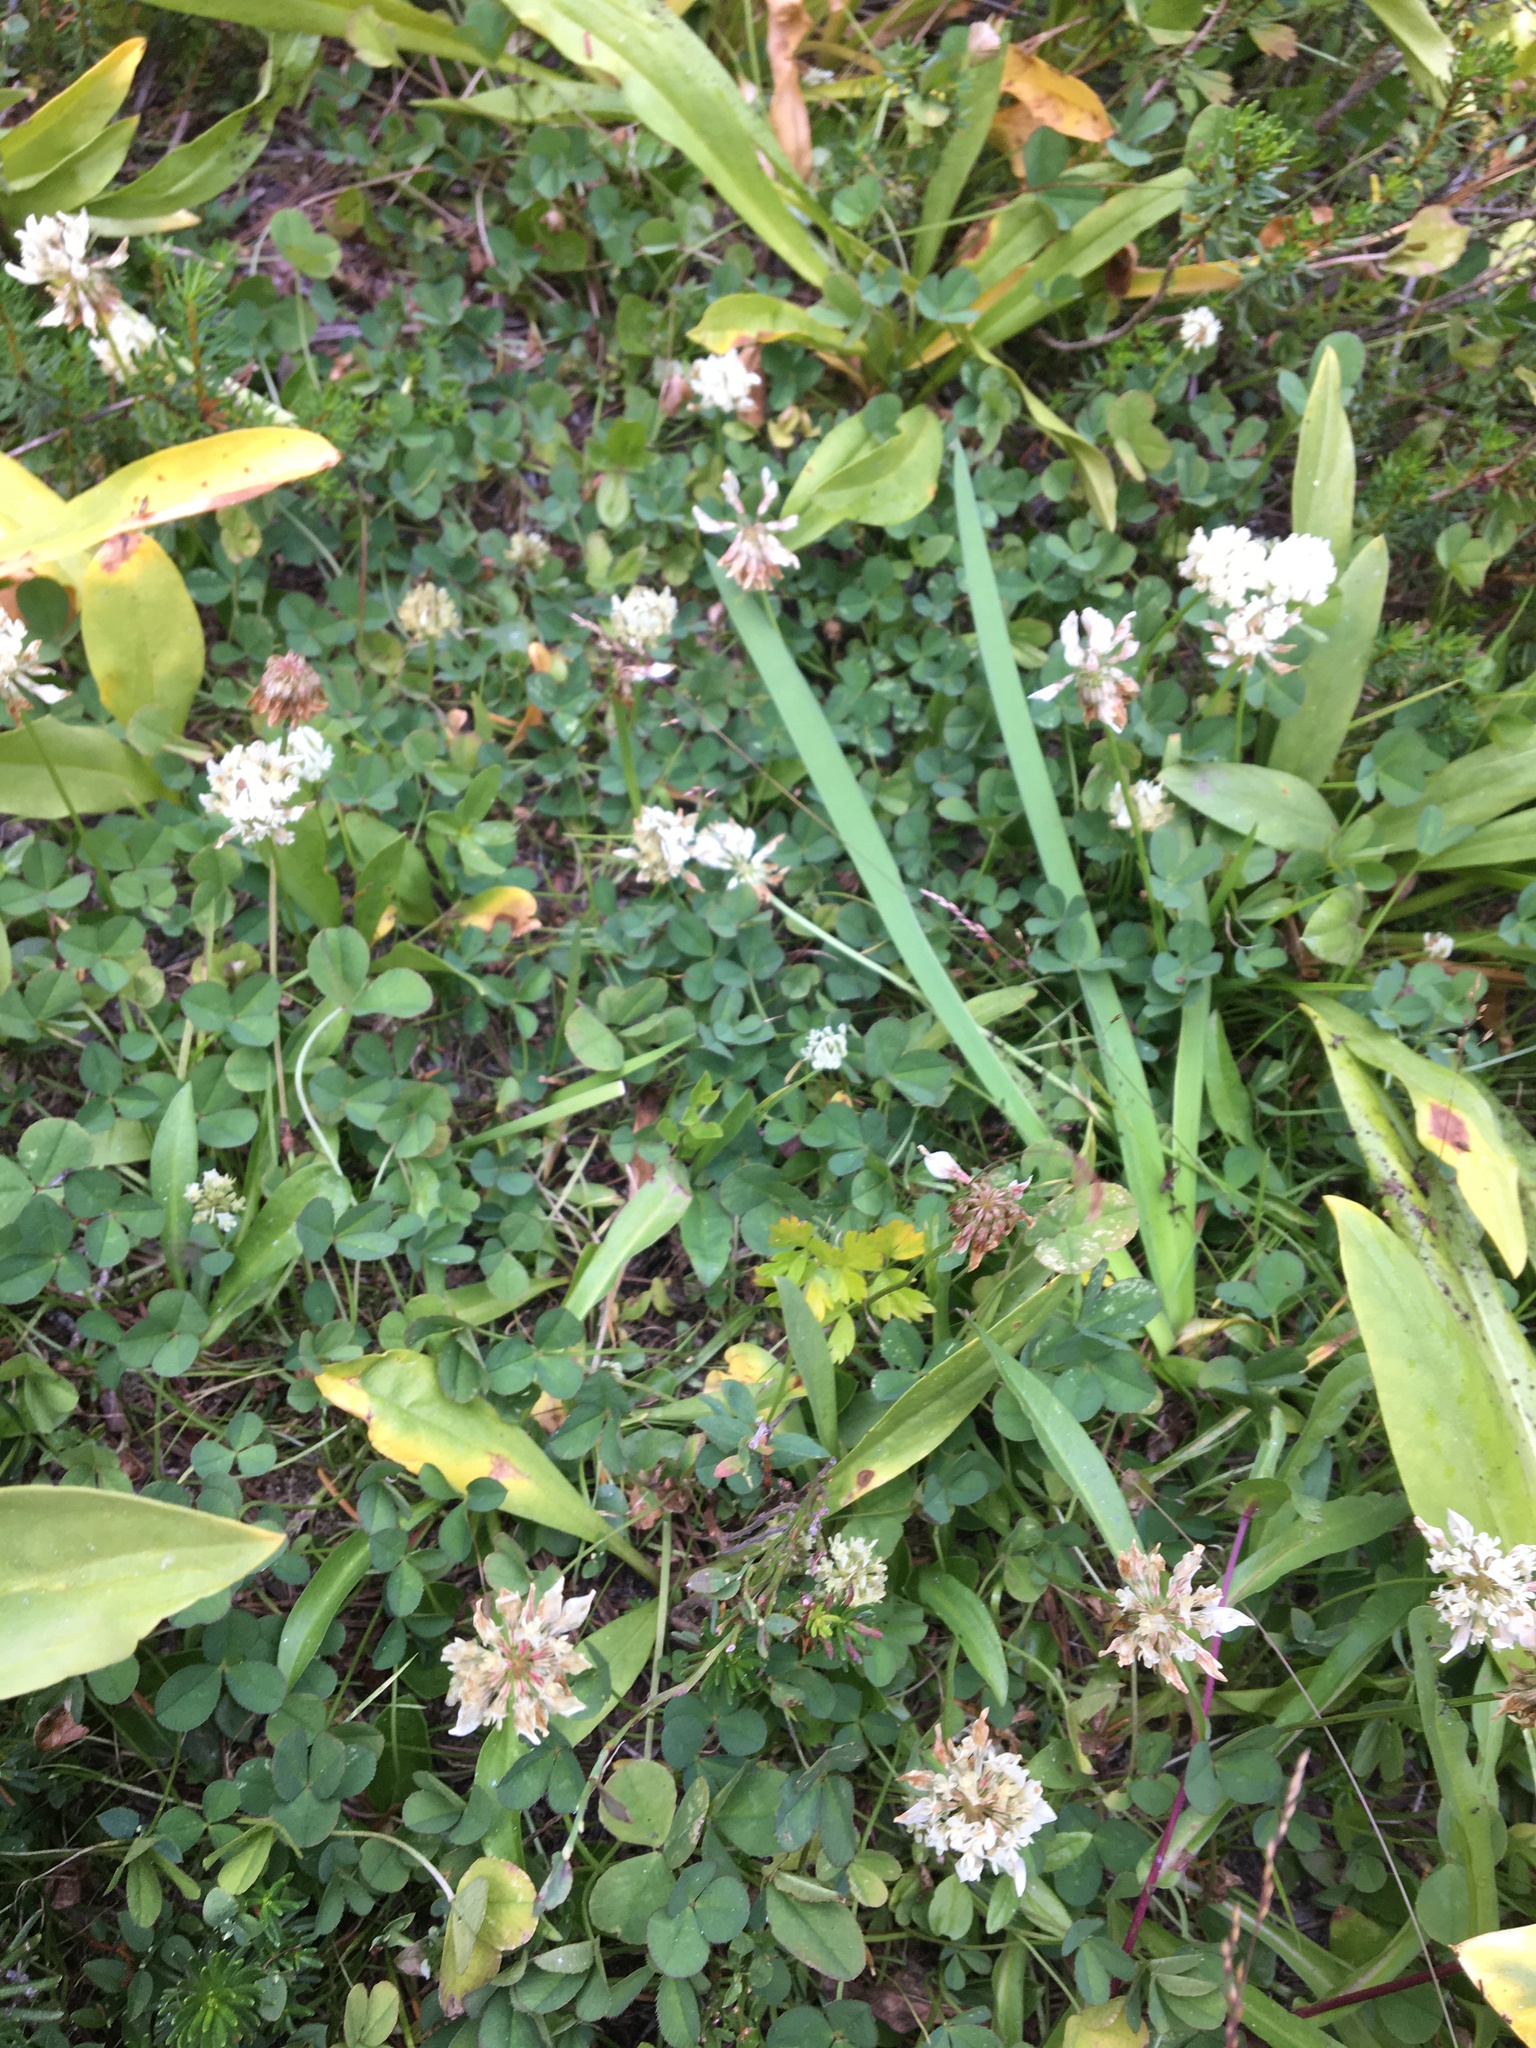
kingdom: Plantae
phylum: Tracheophyta
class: Magnoliopsida
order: Fabales
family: Fabaceae
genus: Trifolium
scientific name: Trifolium repens
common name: White clover
